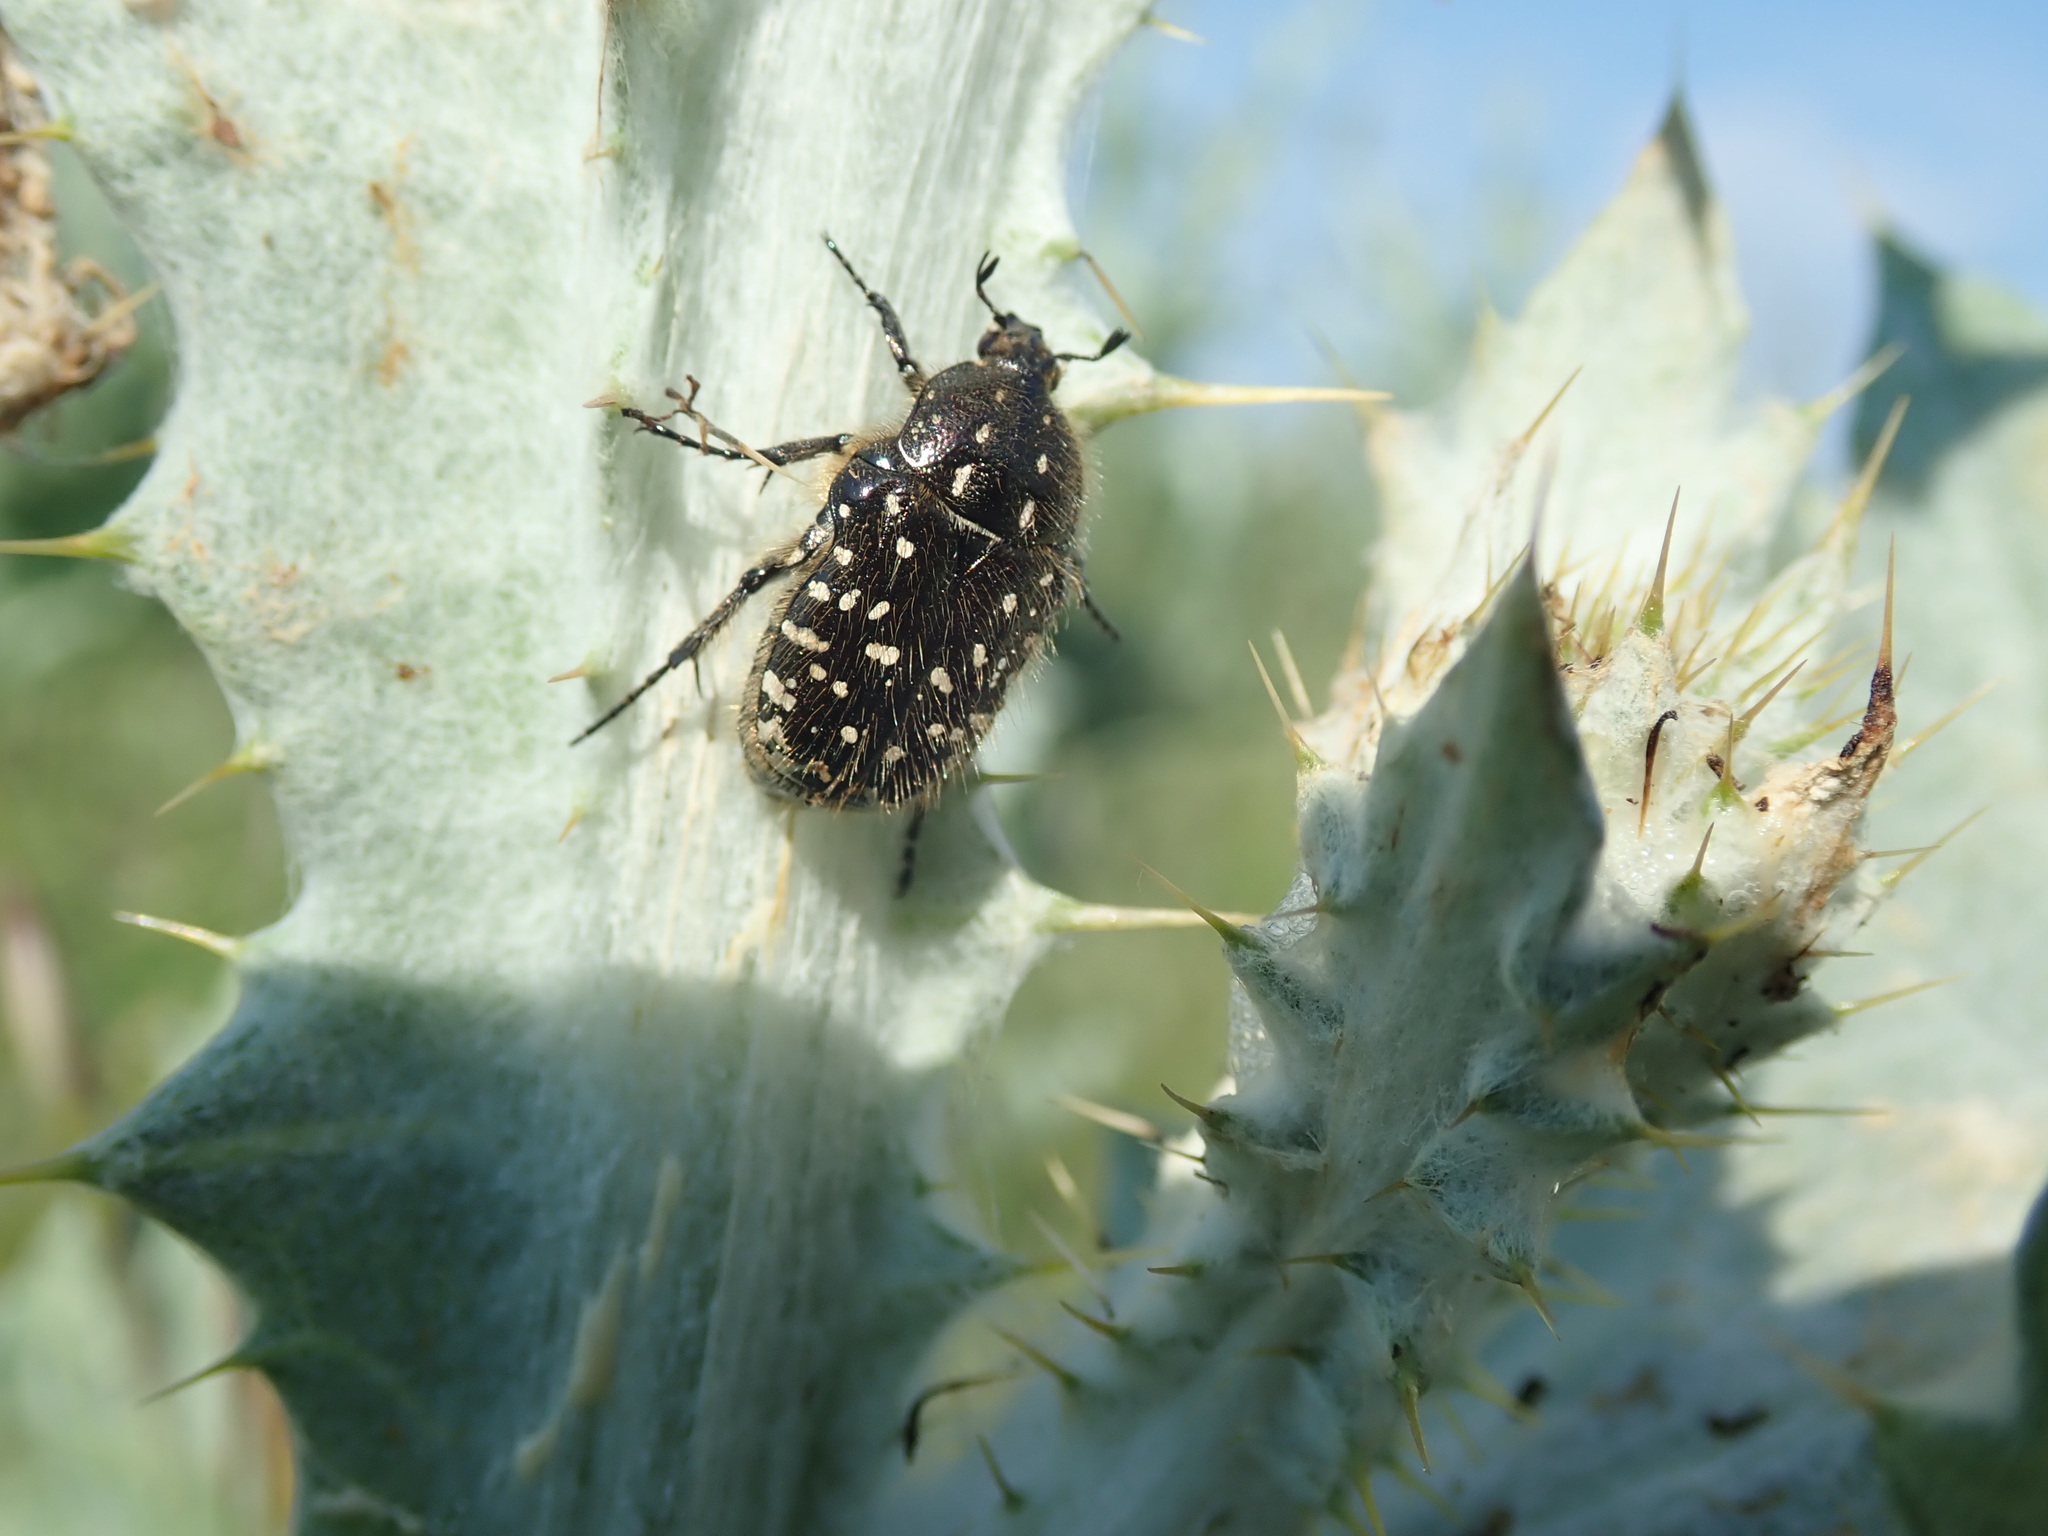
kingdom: Animalia
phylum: Arthropoda
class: Insecta
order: Coleoptera
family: Scarabaeidae
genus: Oxythyrea
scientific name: Oxythyrea funesta
